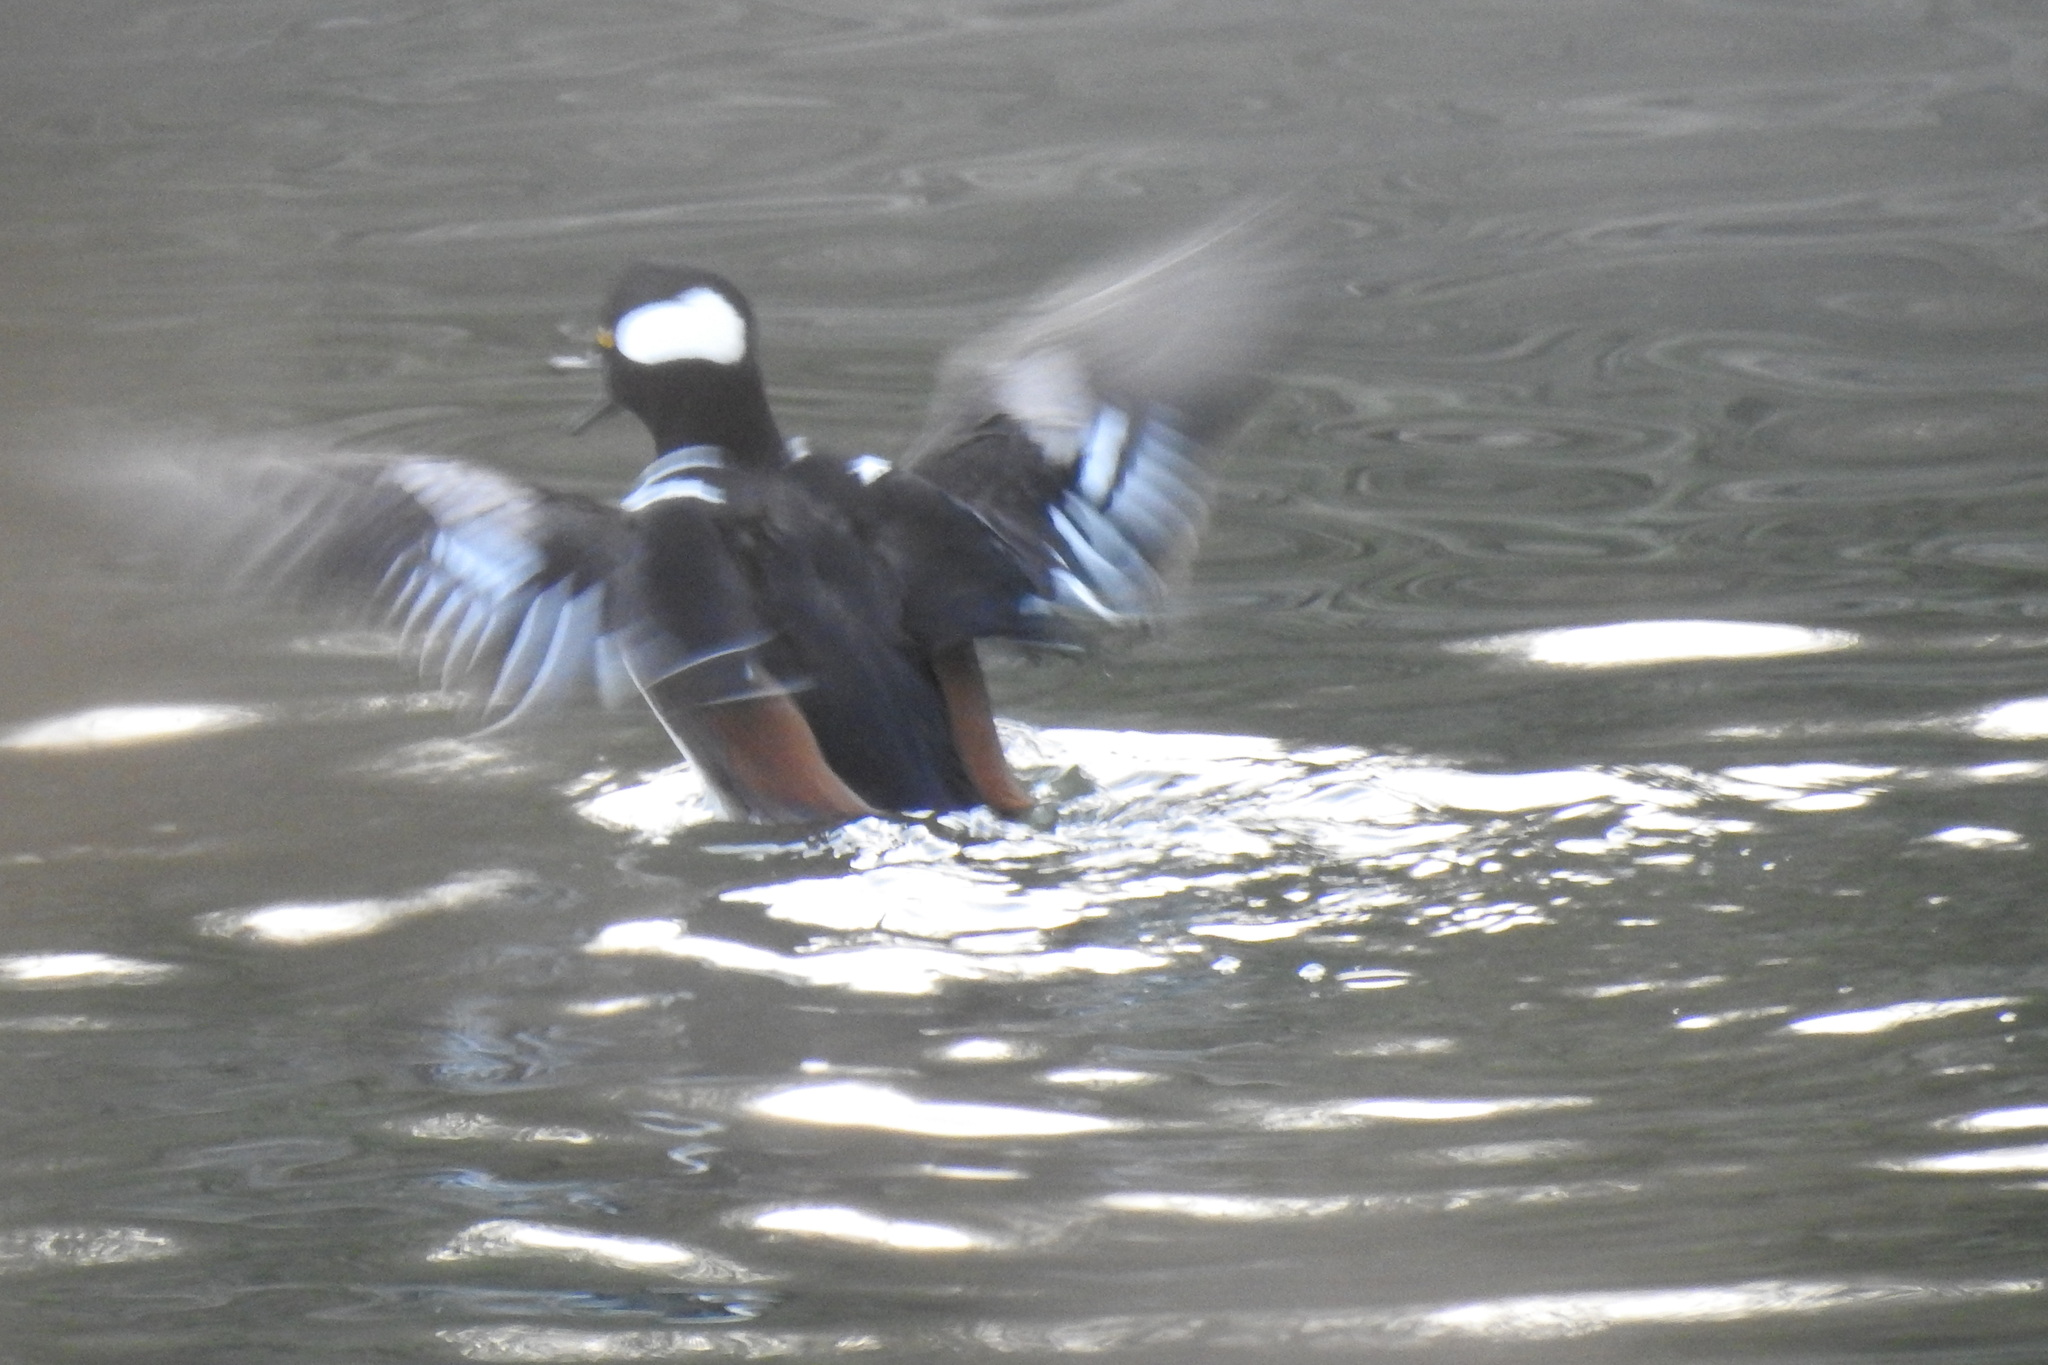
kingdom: Animalia
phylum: Chordata
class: Aves
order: Anseriformes
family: Anatidae
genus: Lophodytes
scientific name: Lophodytes cucullatus
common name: Hooded merganser
